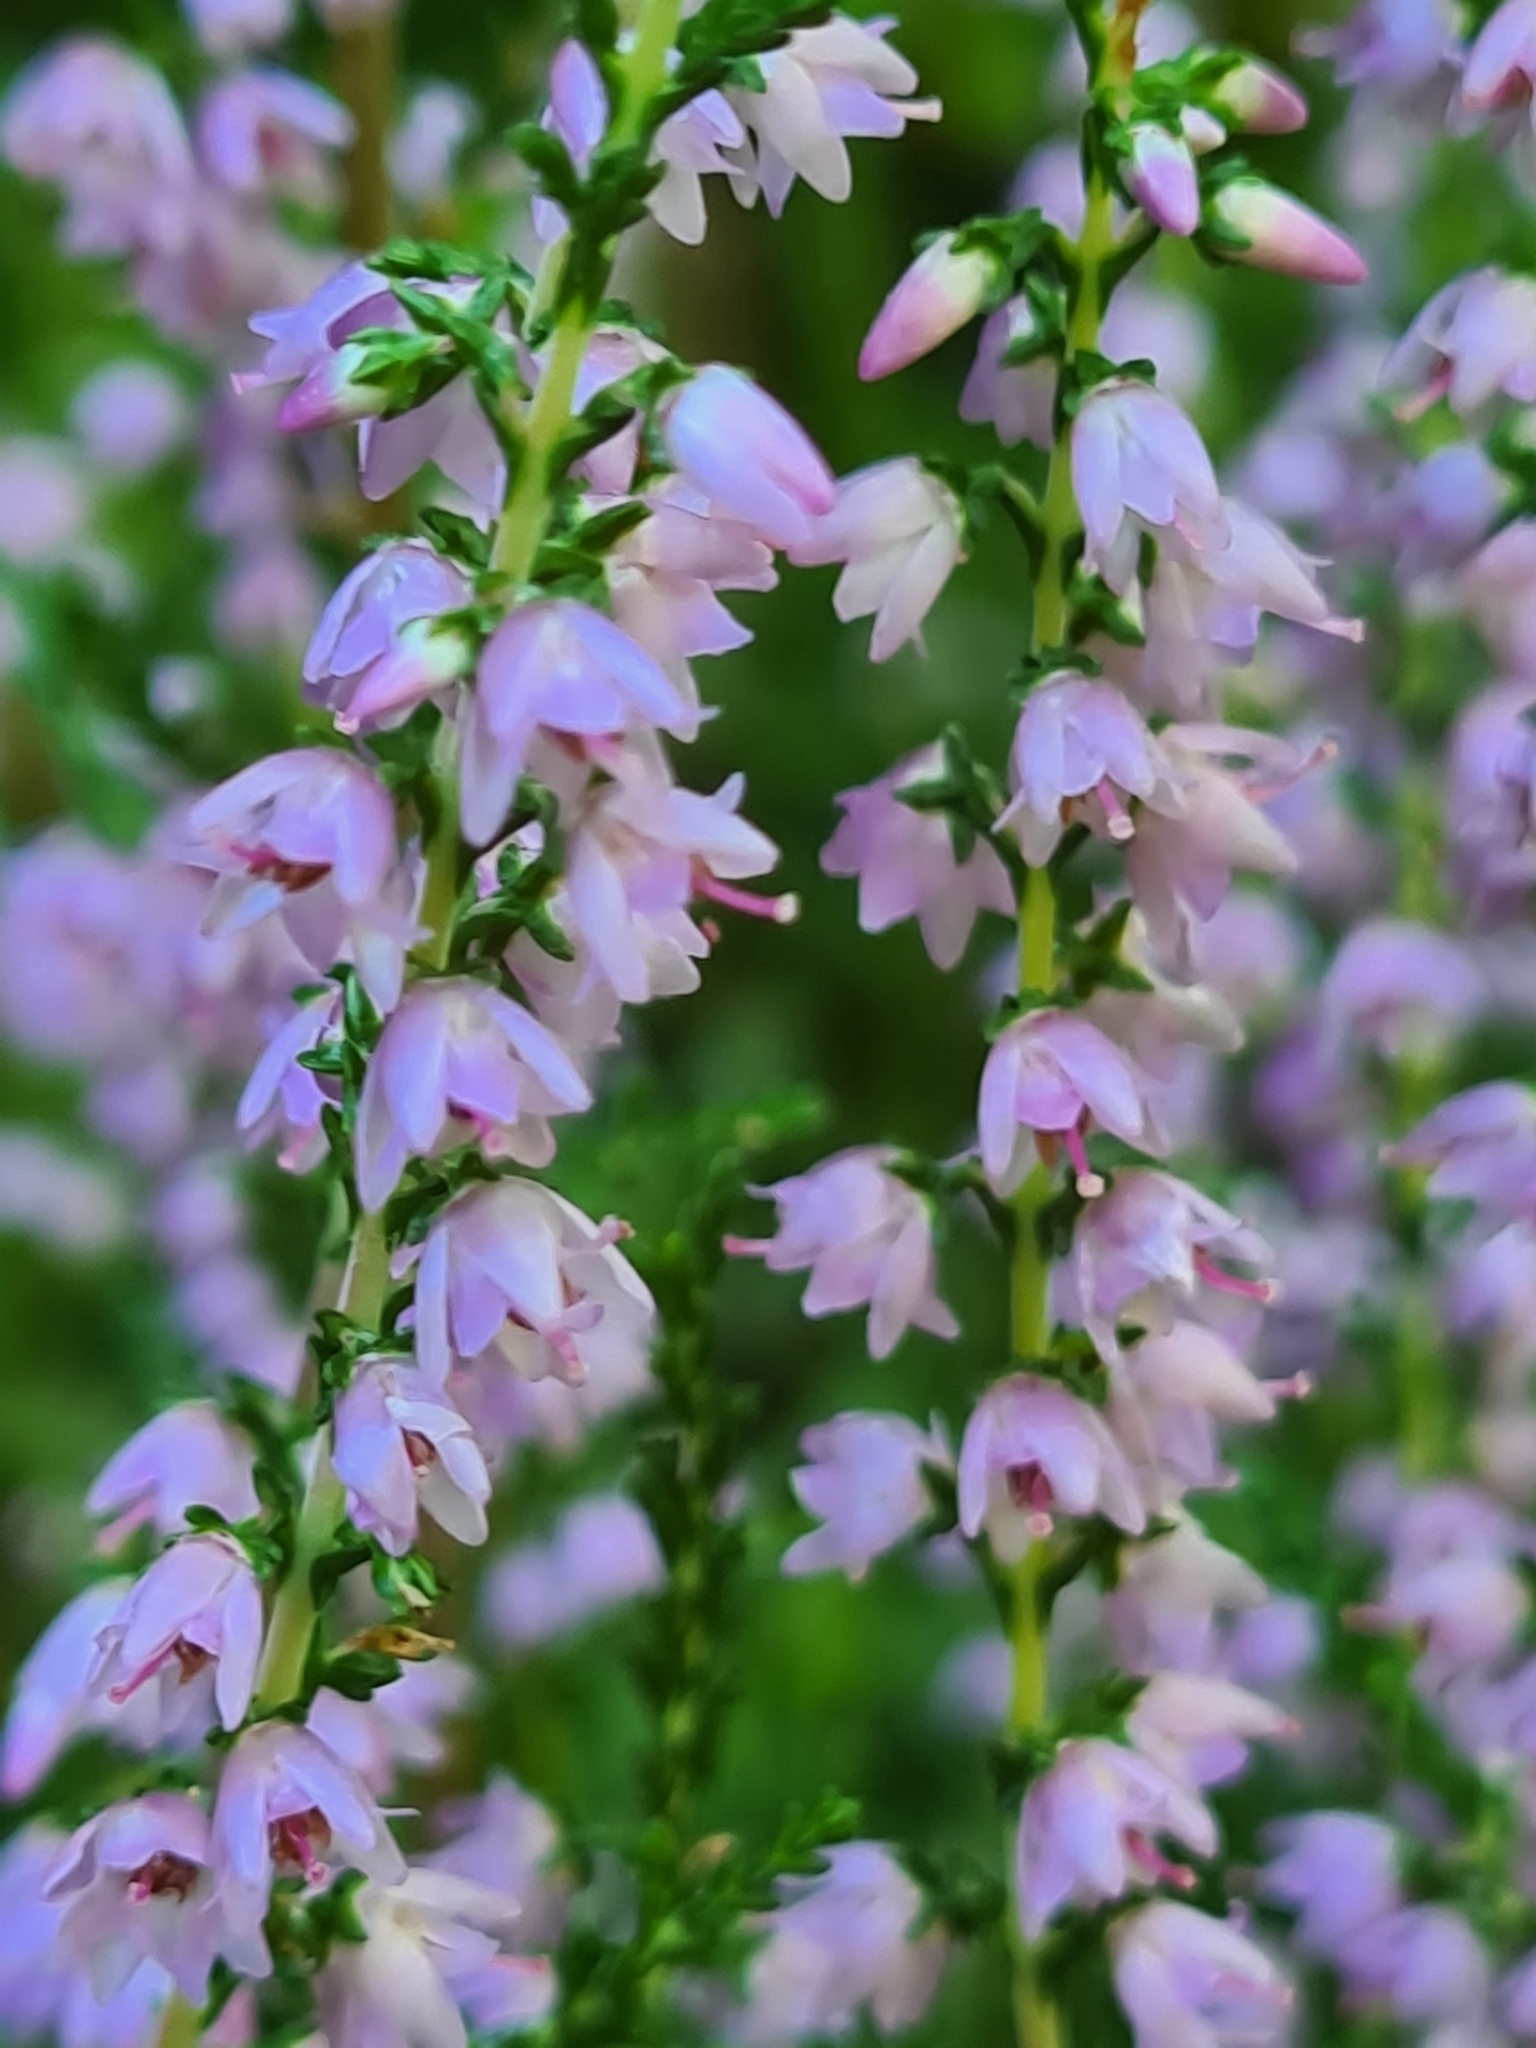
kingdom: Plantae
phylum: Tracheophyta
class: Magnoliopsida
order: Ericales
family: Ericaceae
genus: Calluna
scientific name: Calluna vulgaris
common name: Heather
